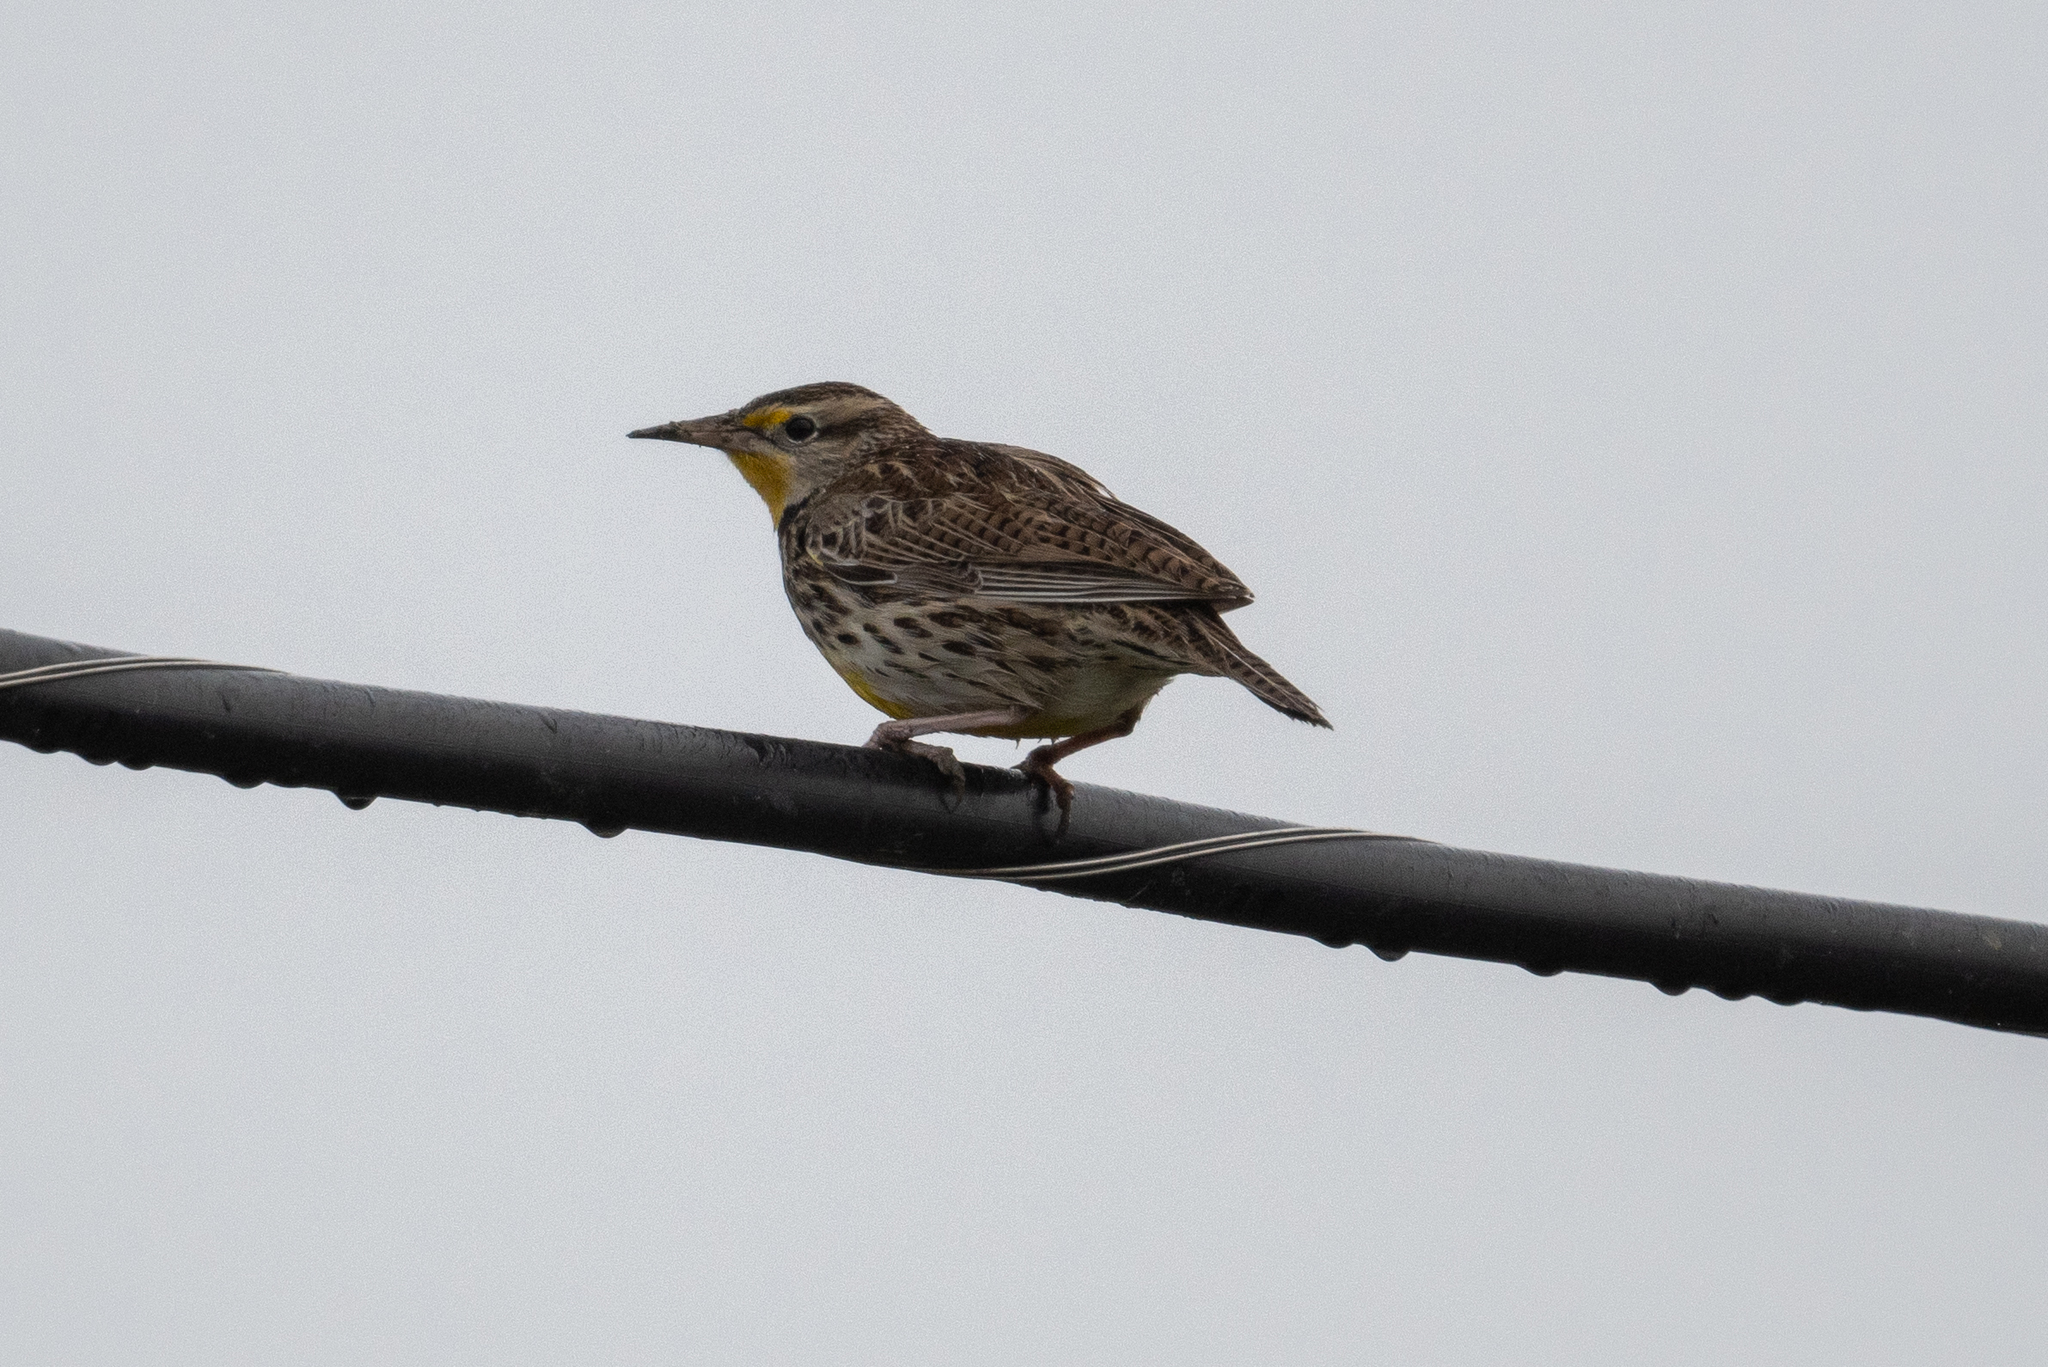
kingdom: Animalia
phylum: Chordata
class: Aves
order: Passeriformes
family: Icteridae
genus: Sturnella
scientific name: Sturnella neglecta
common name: Western meadowlark
